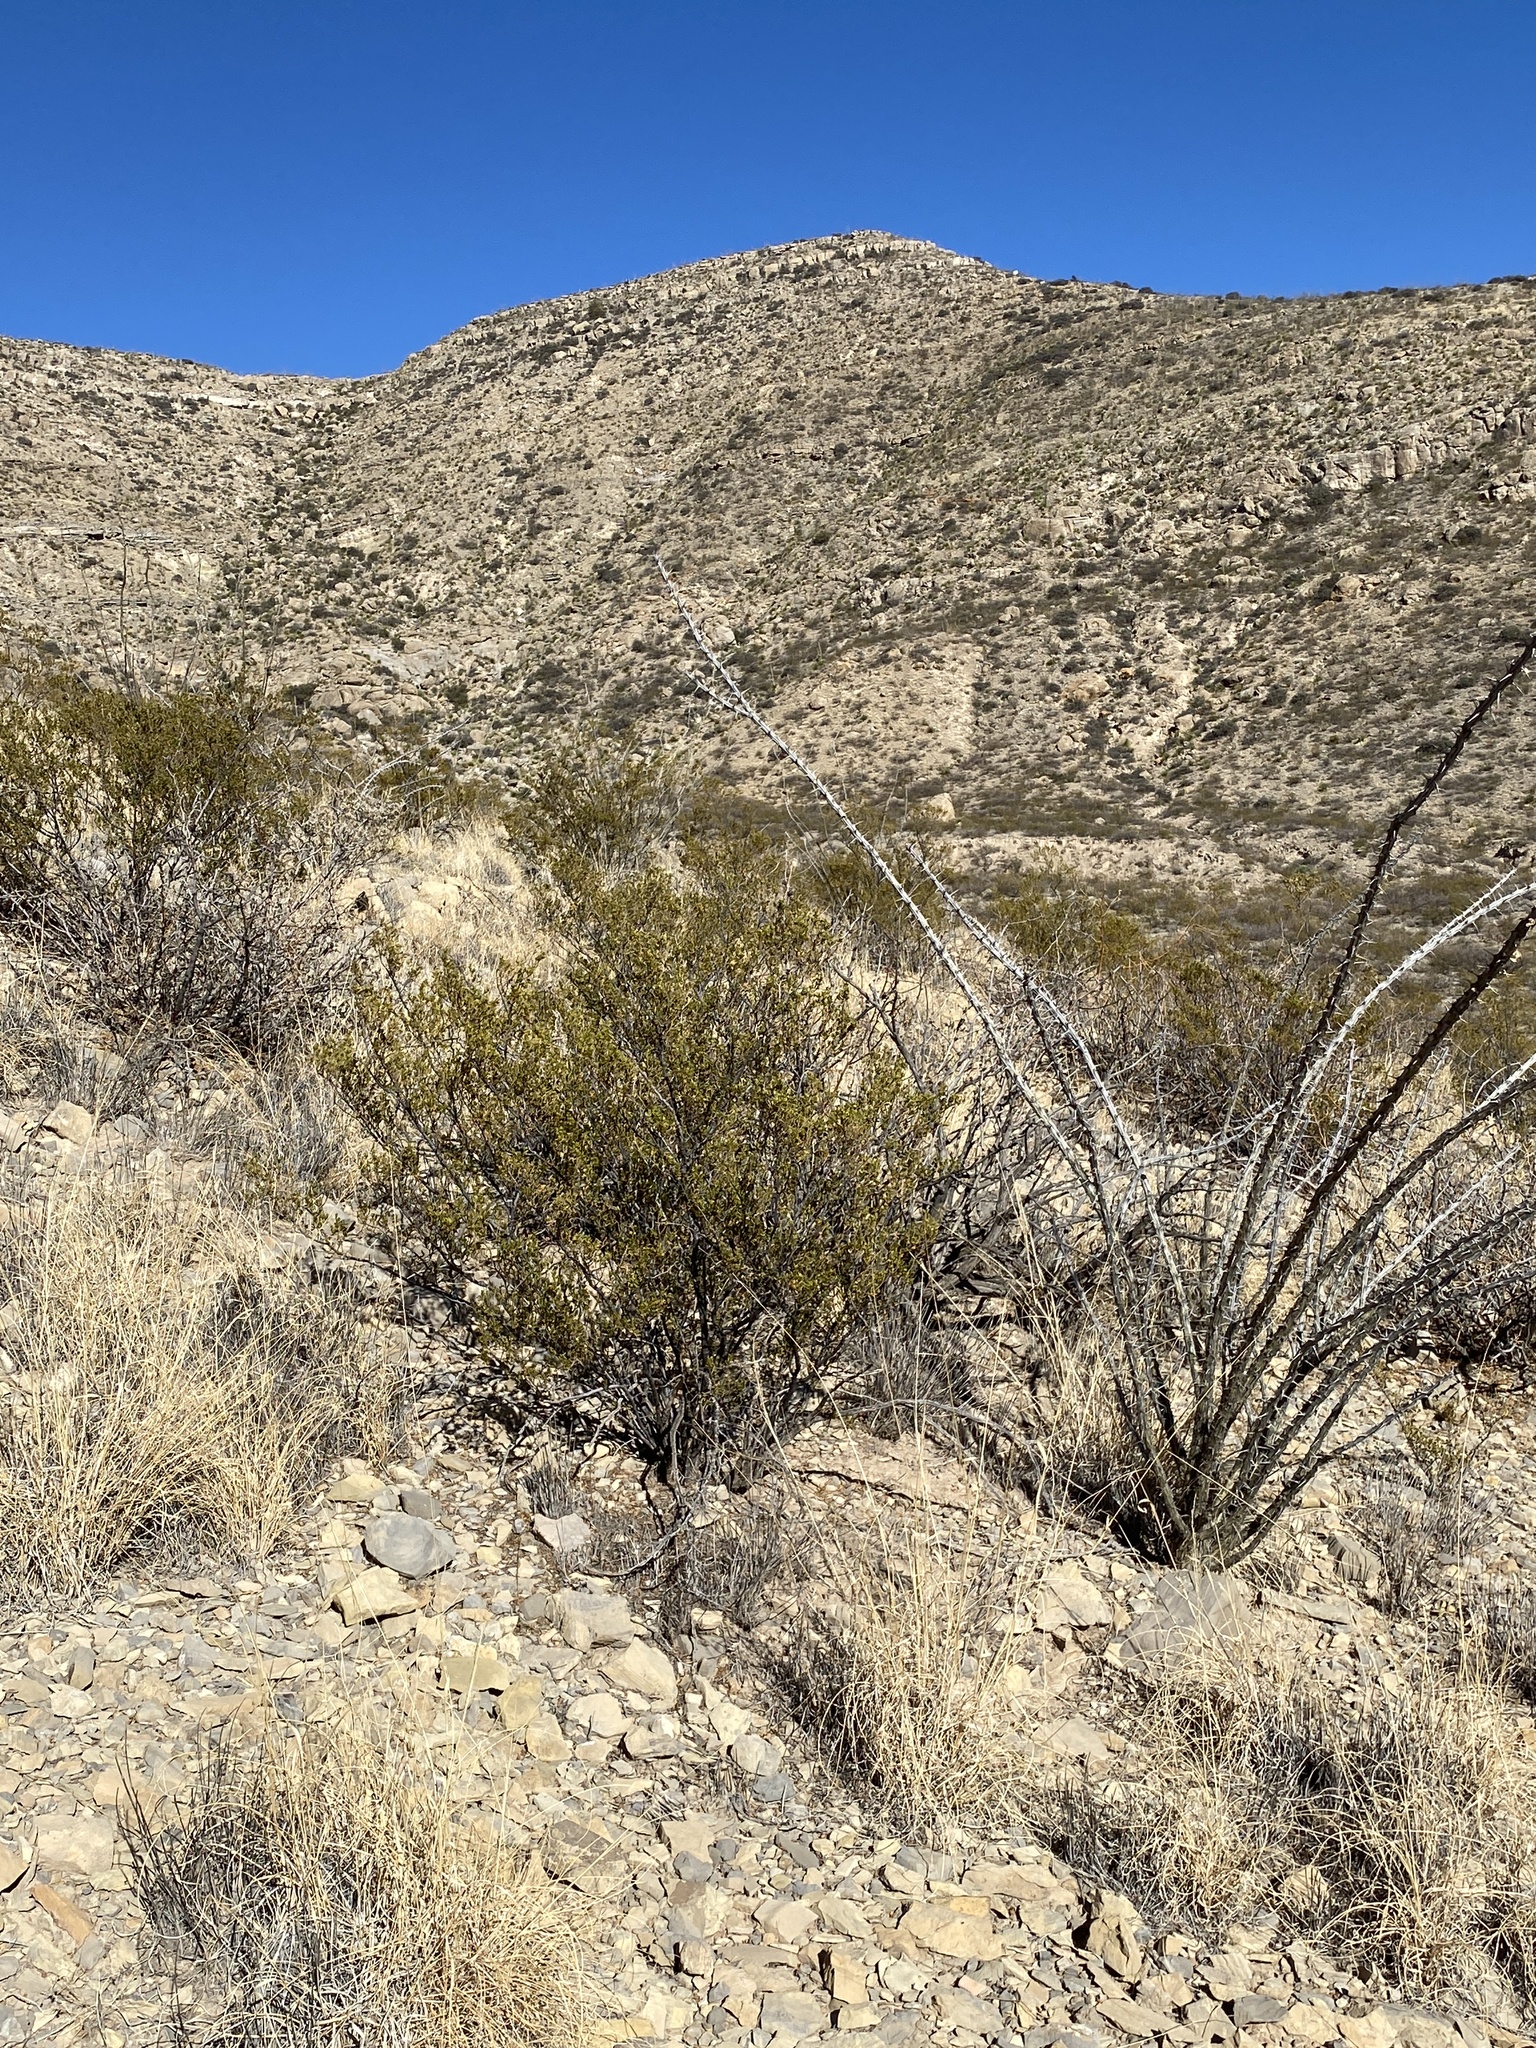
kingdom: Plantae
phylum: Tracheophyta
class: Magnoliopsida
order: Zygophyllales
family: Zygophyllaceae
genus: Larrea
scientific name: Larrea tridentata
